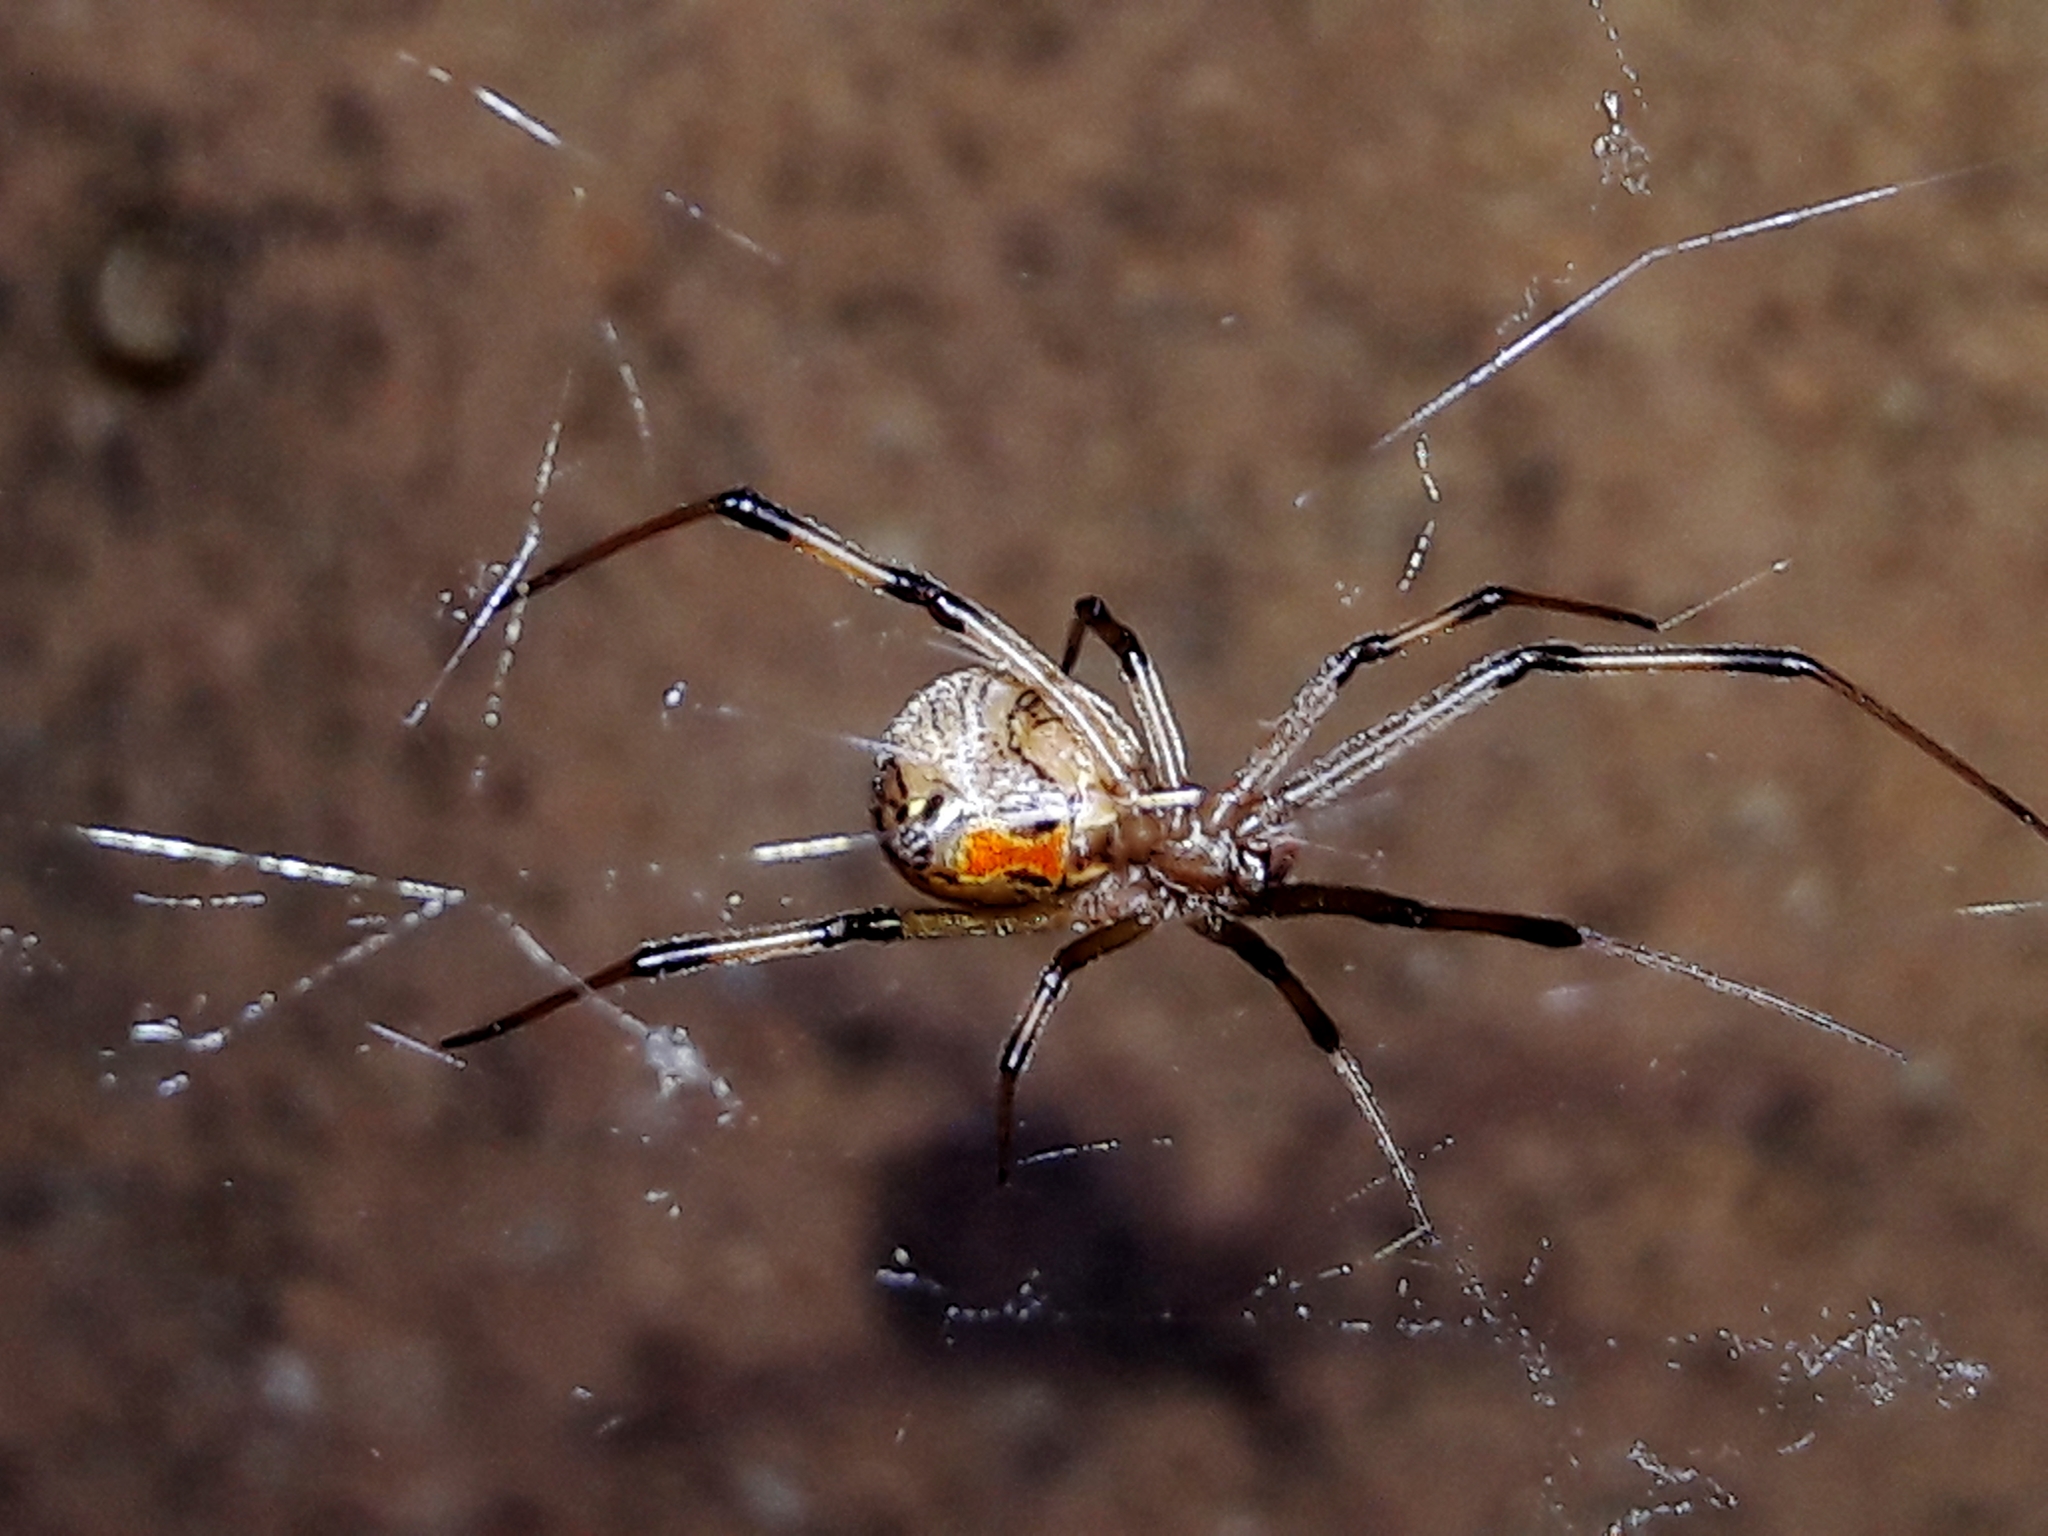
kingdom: Animalia
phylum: Arthropoda
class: Arachnida
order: Araneae
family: Theridiidae
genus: Latrodectus
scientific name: Latrodectus geometricus
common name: Brown widow spider
